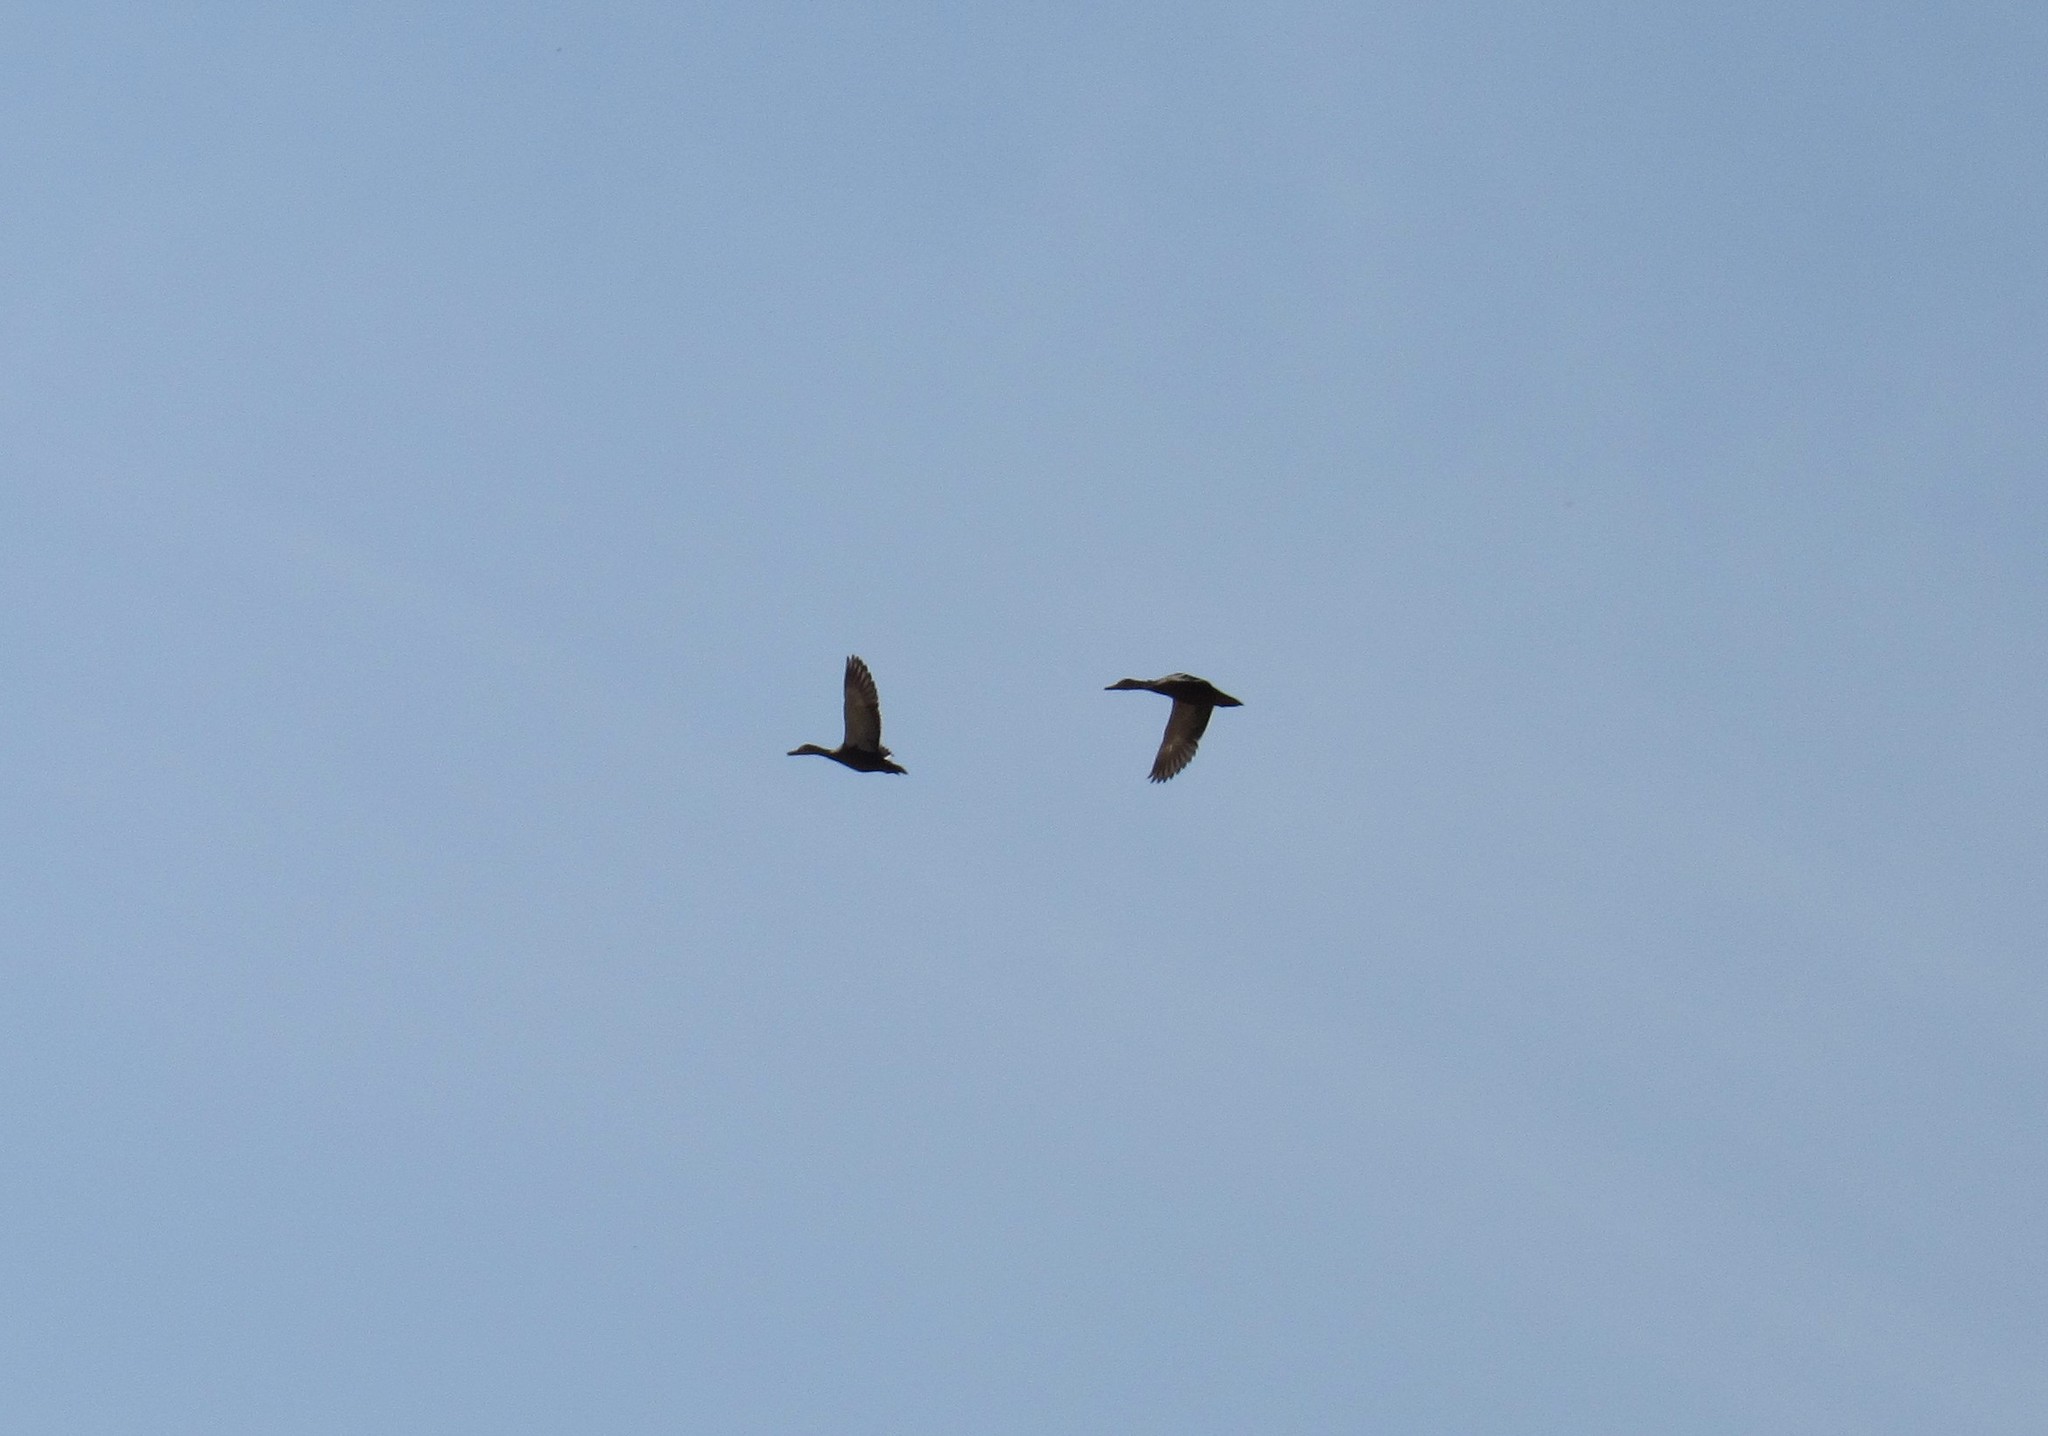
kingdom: Animalia
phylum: Chordata
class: Aves
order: Anseriformes
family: Anatidae
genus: Anas
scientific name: Anas diazi
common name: Mexican duck
